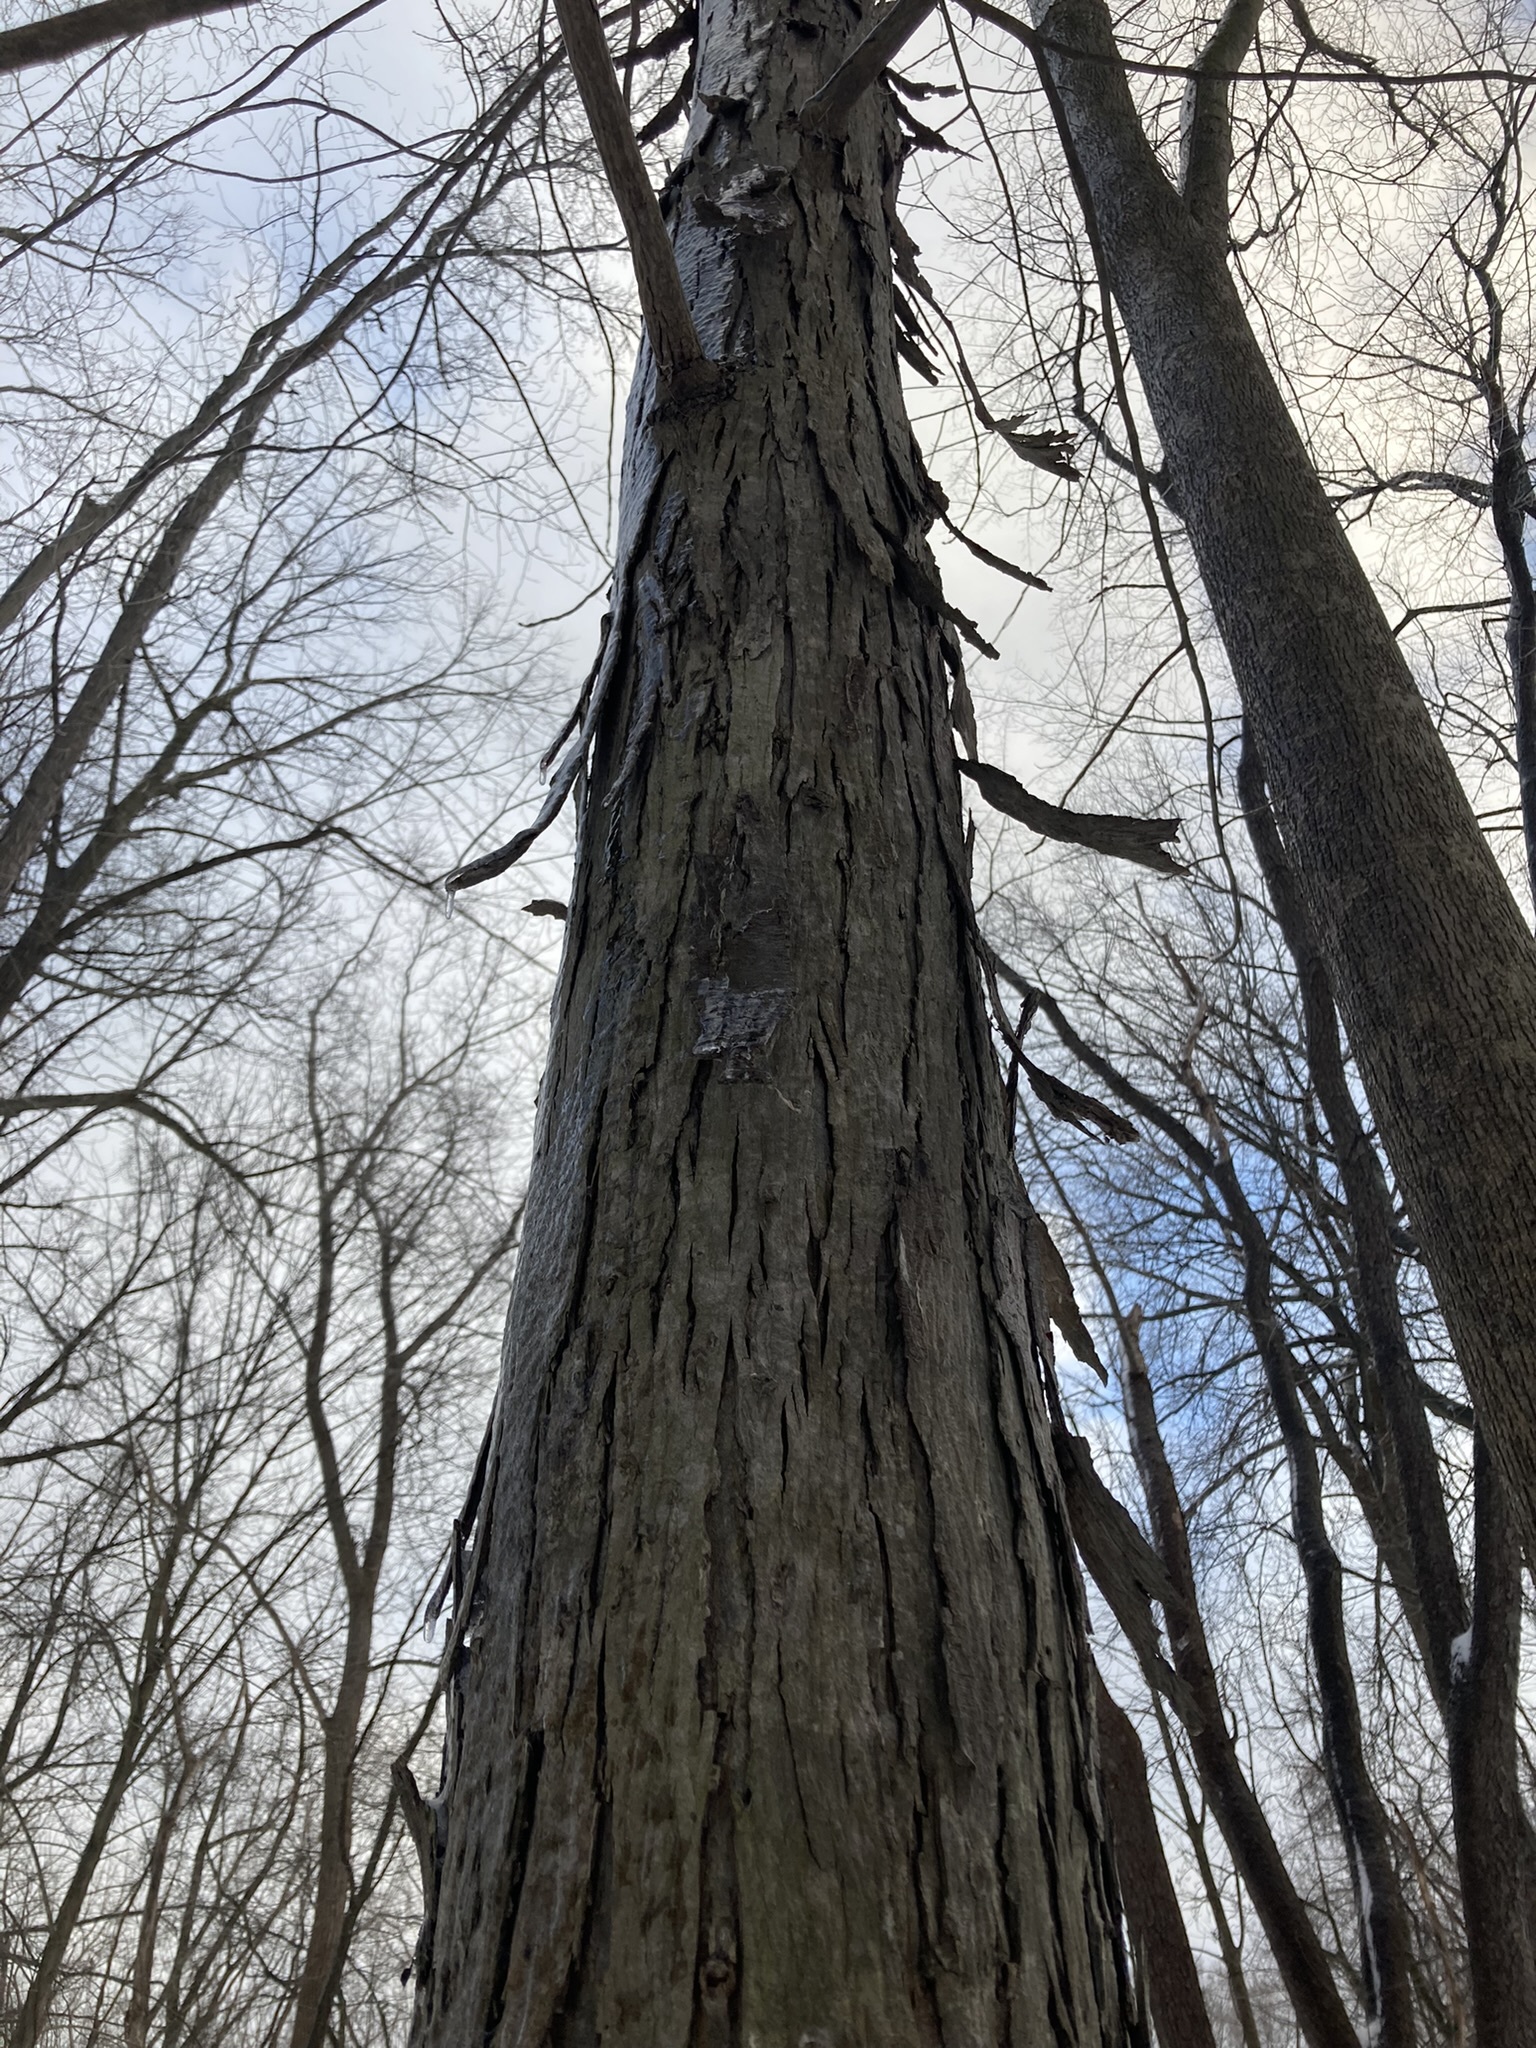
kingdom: Plantae
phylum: Tracheophyta
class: Magnoliopsida
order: Fagales
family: Juglandaceae
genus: Carya
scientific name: Carya ovata
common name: Shagbark hickory
